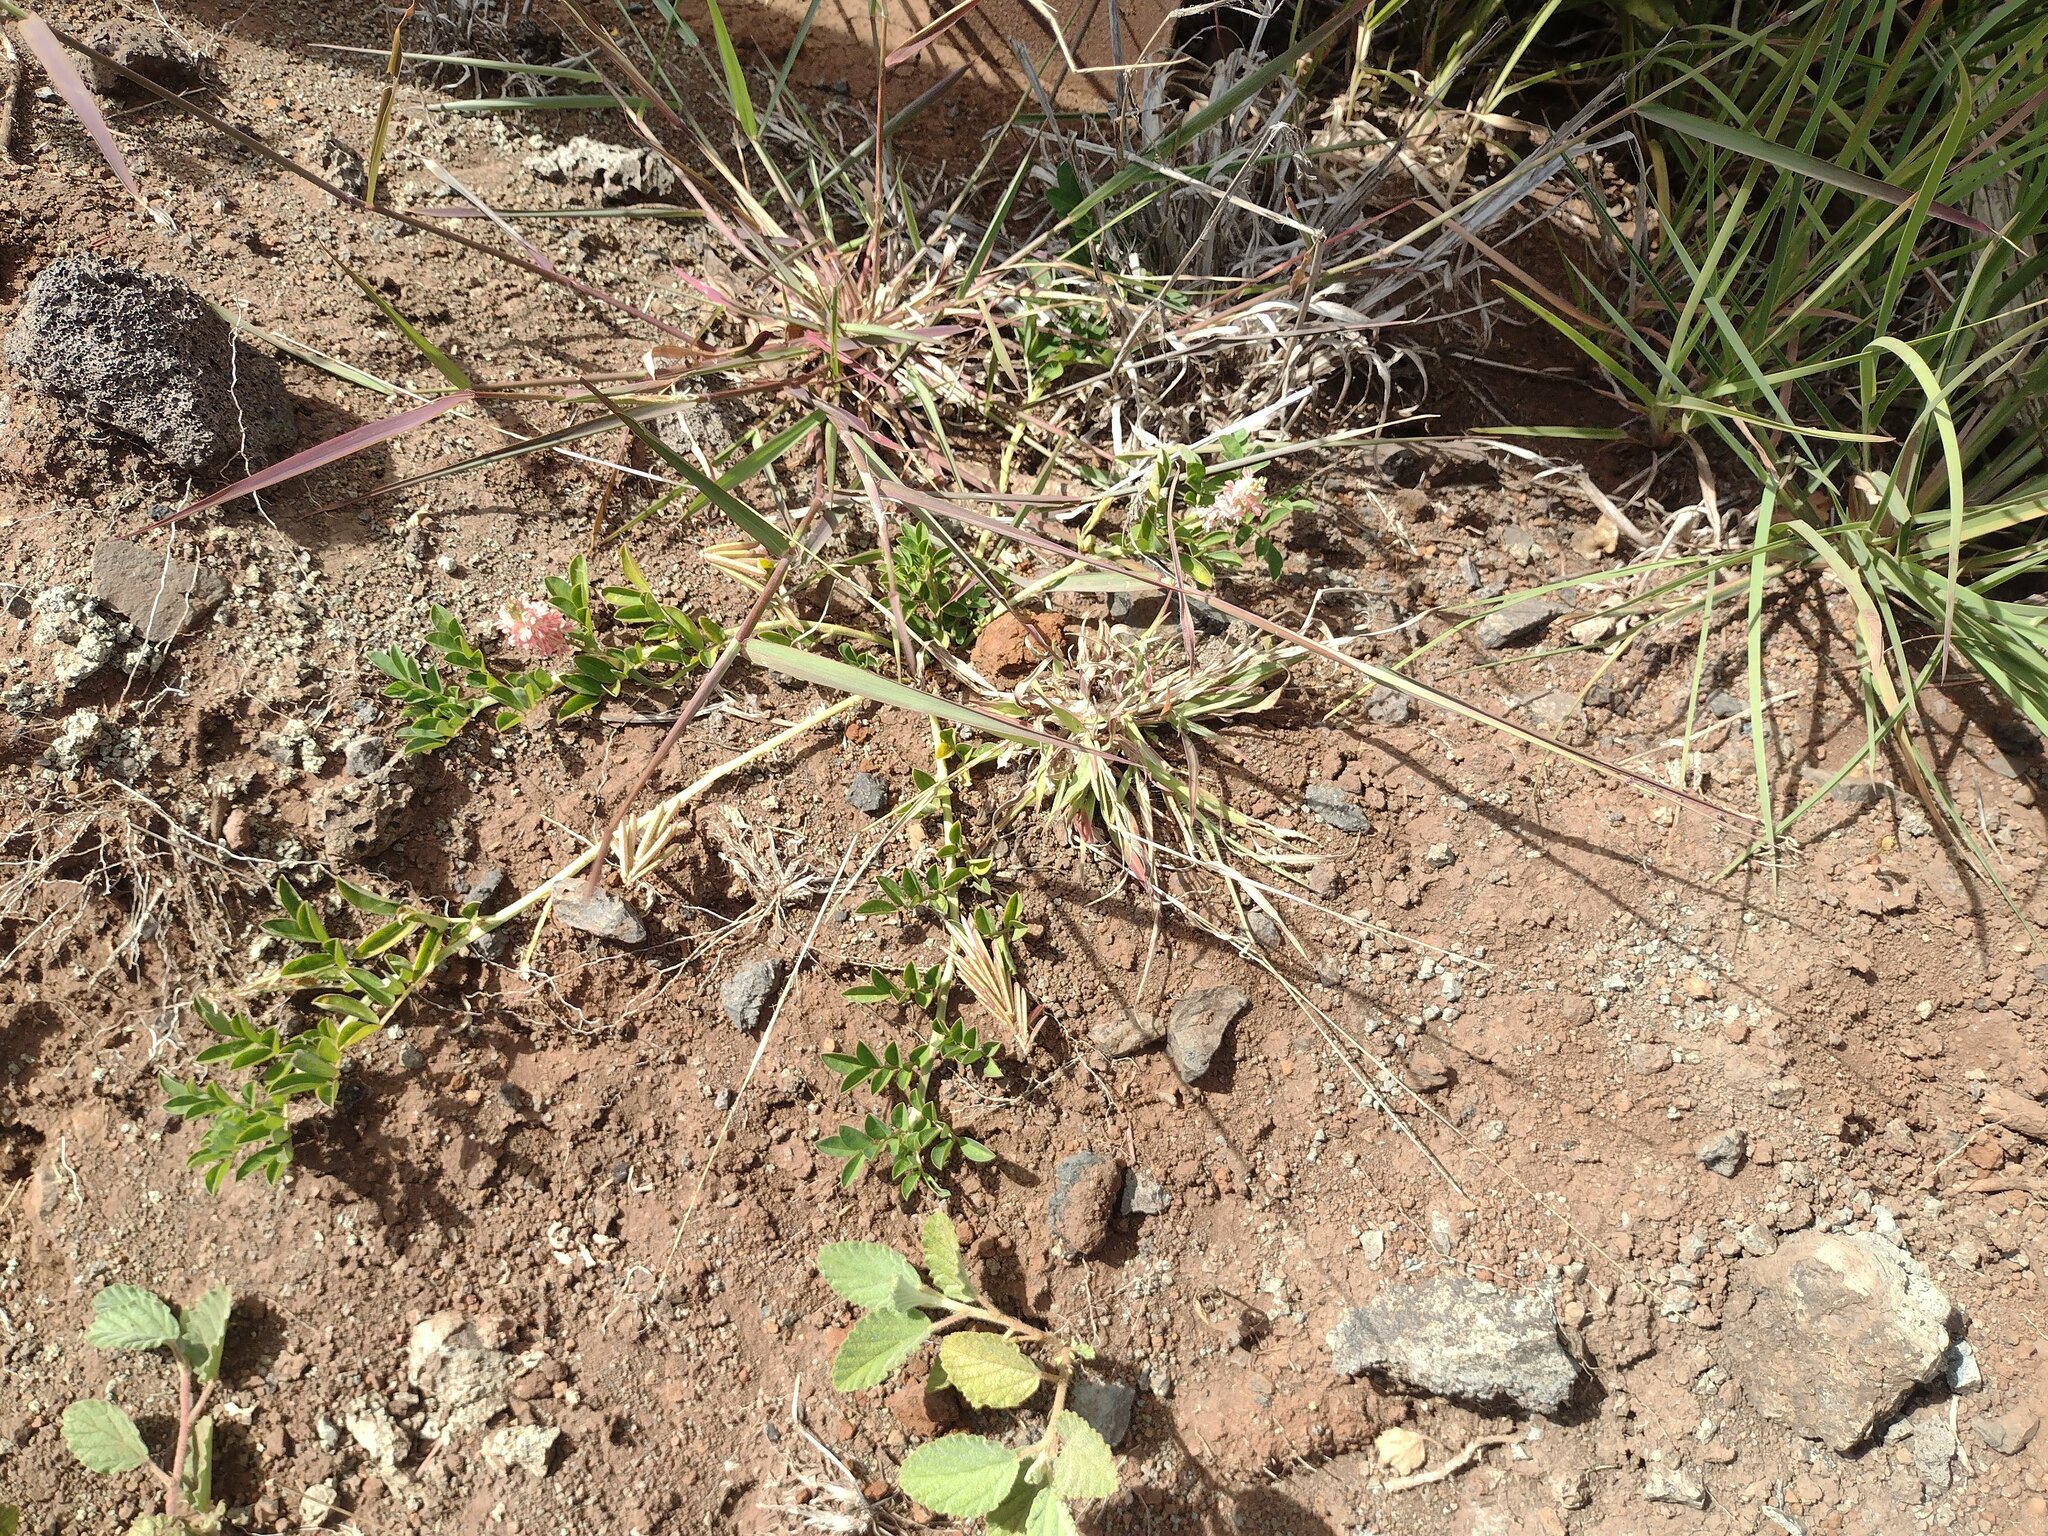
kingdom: Plantae
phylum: Tracheophyta
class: Magnoliopsida
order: Fabales
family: Fabaceae
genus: Indigofera
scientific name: Indigofera spicata
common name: Creeping indigo
